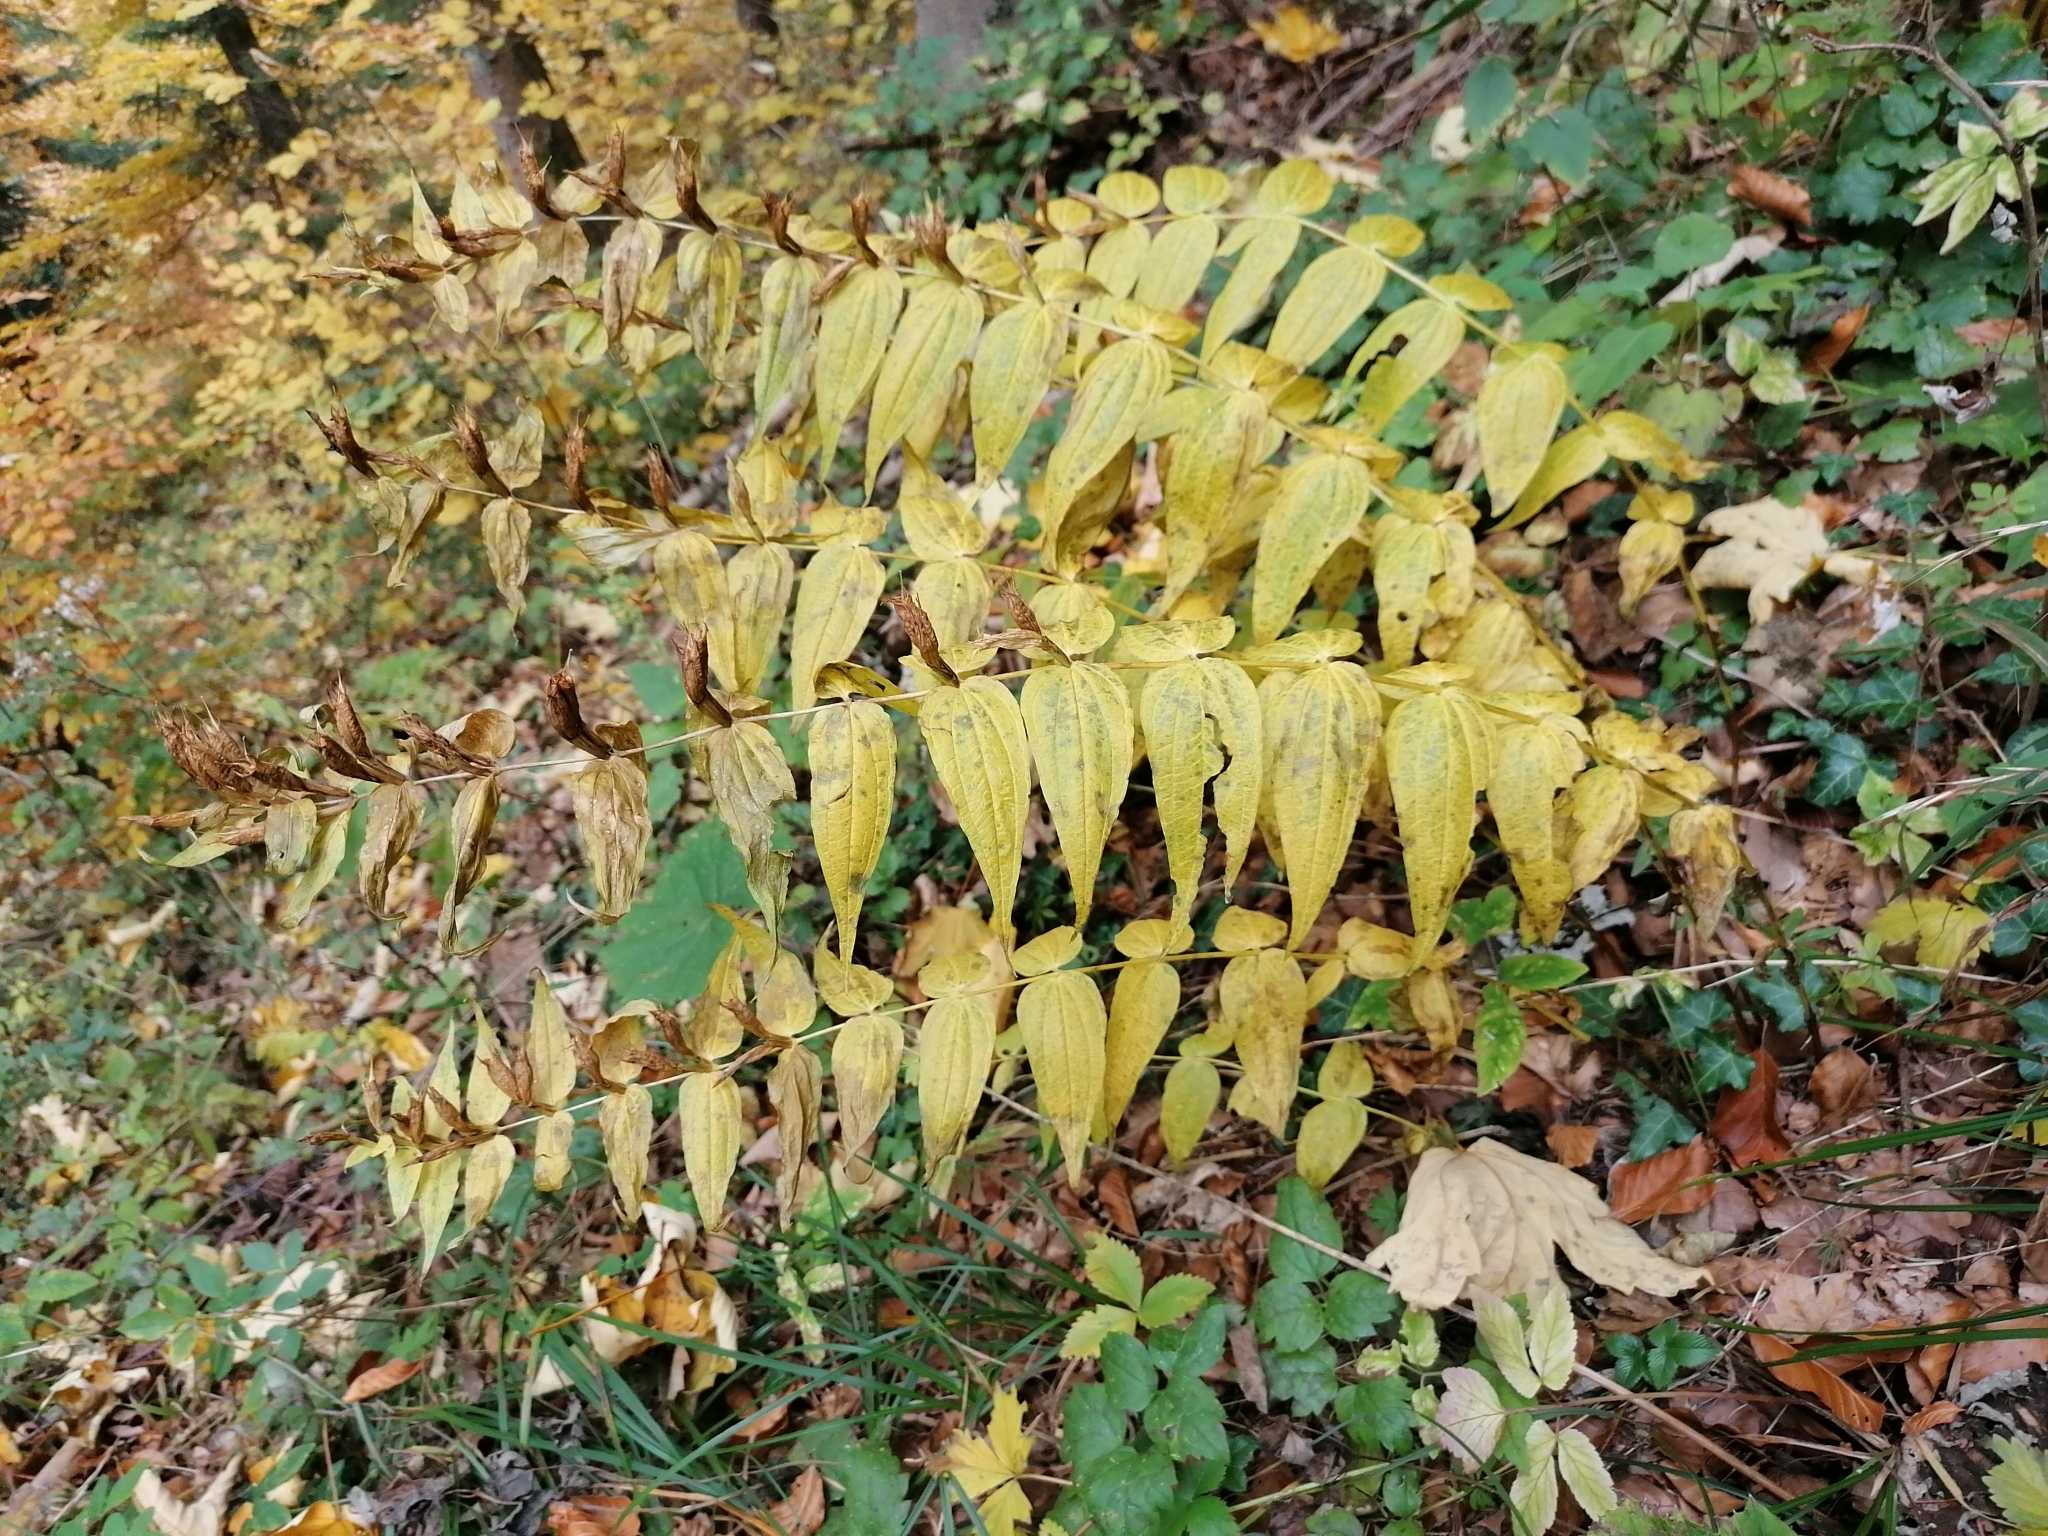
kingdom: Plantae
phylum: Tracheophyta
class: Magnoliopsida
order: Gentianales
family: Gentianaceae
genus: Gentiana
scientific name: Gentiana asclepiadea
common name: Willow gentian
